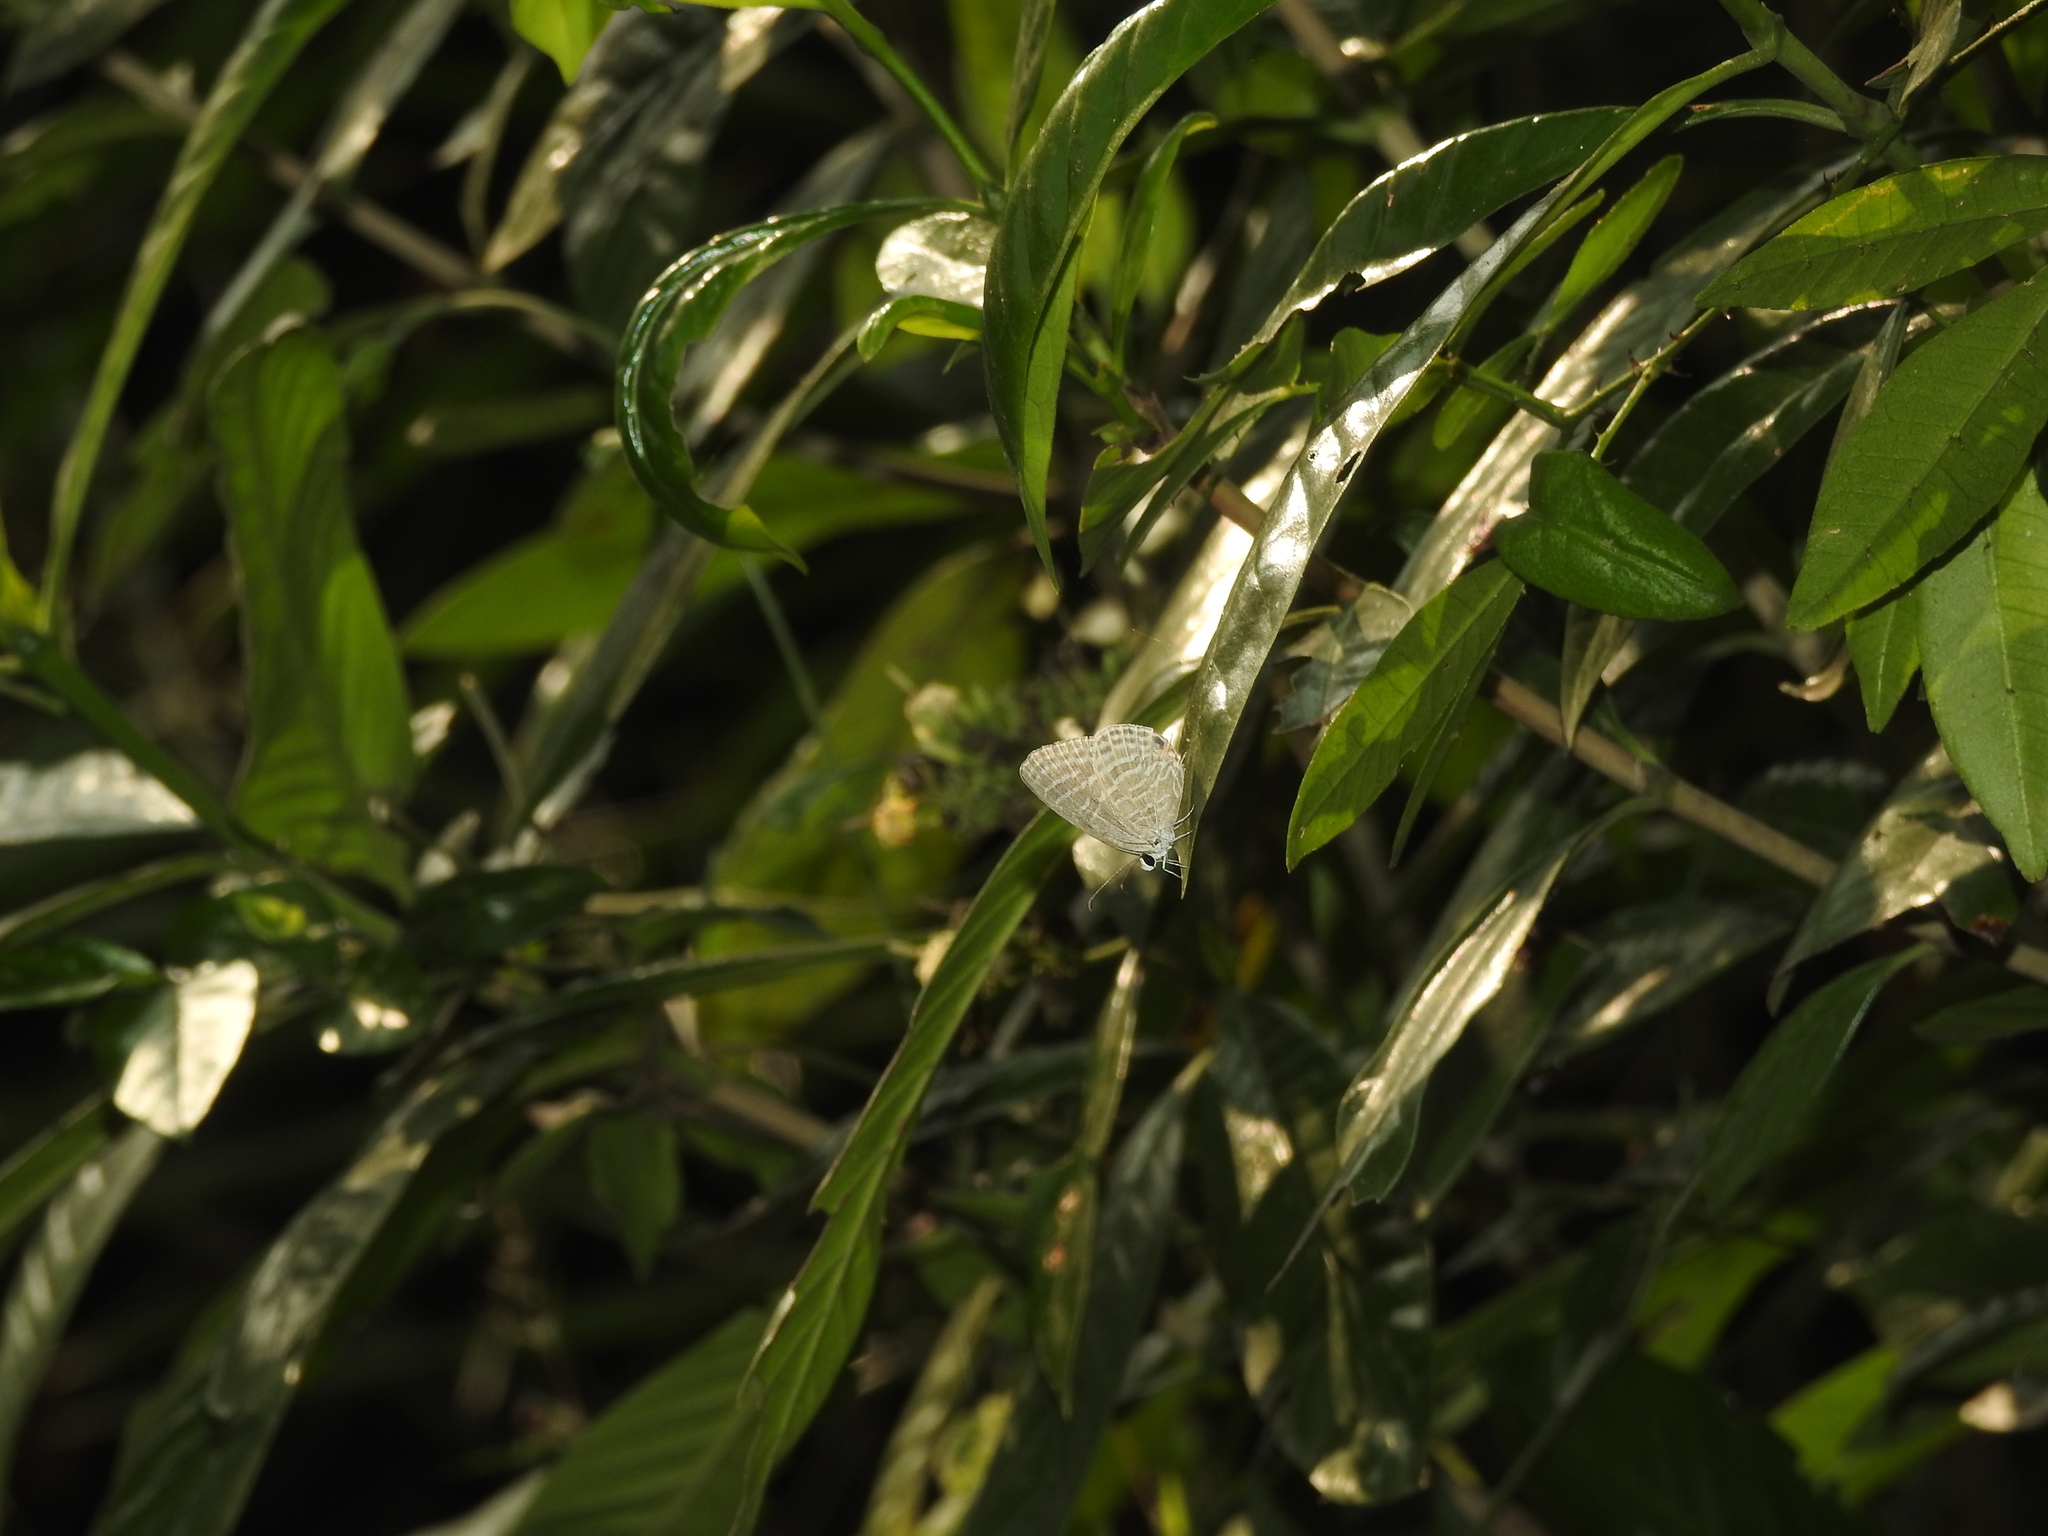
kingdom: Animalia
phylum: Arthropoda
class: Insecta
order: Lepidoptera
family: Lycaenidae
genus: Jamides
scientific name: Jamides celeno
